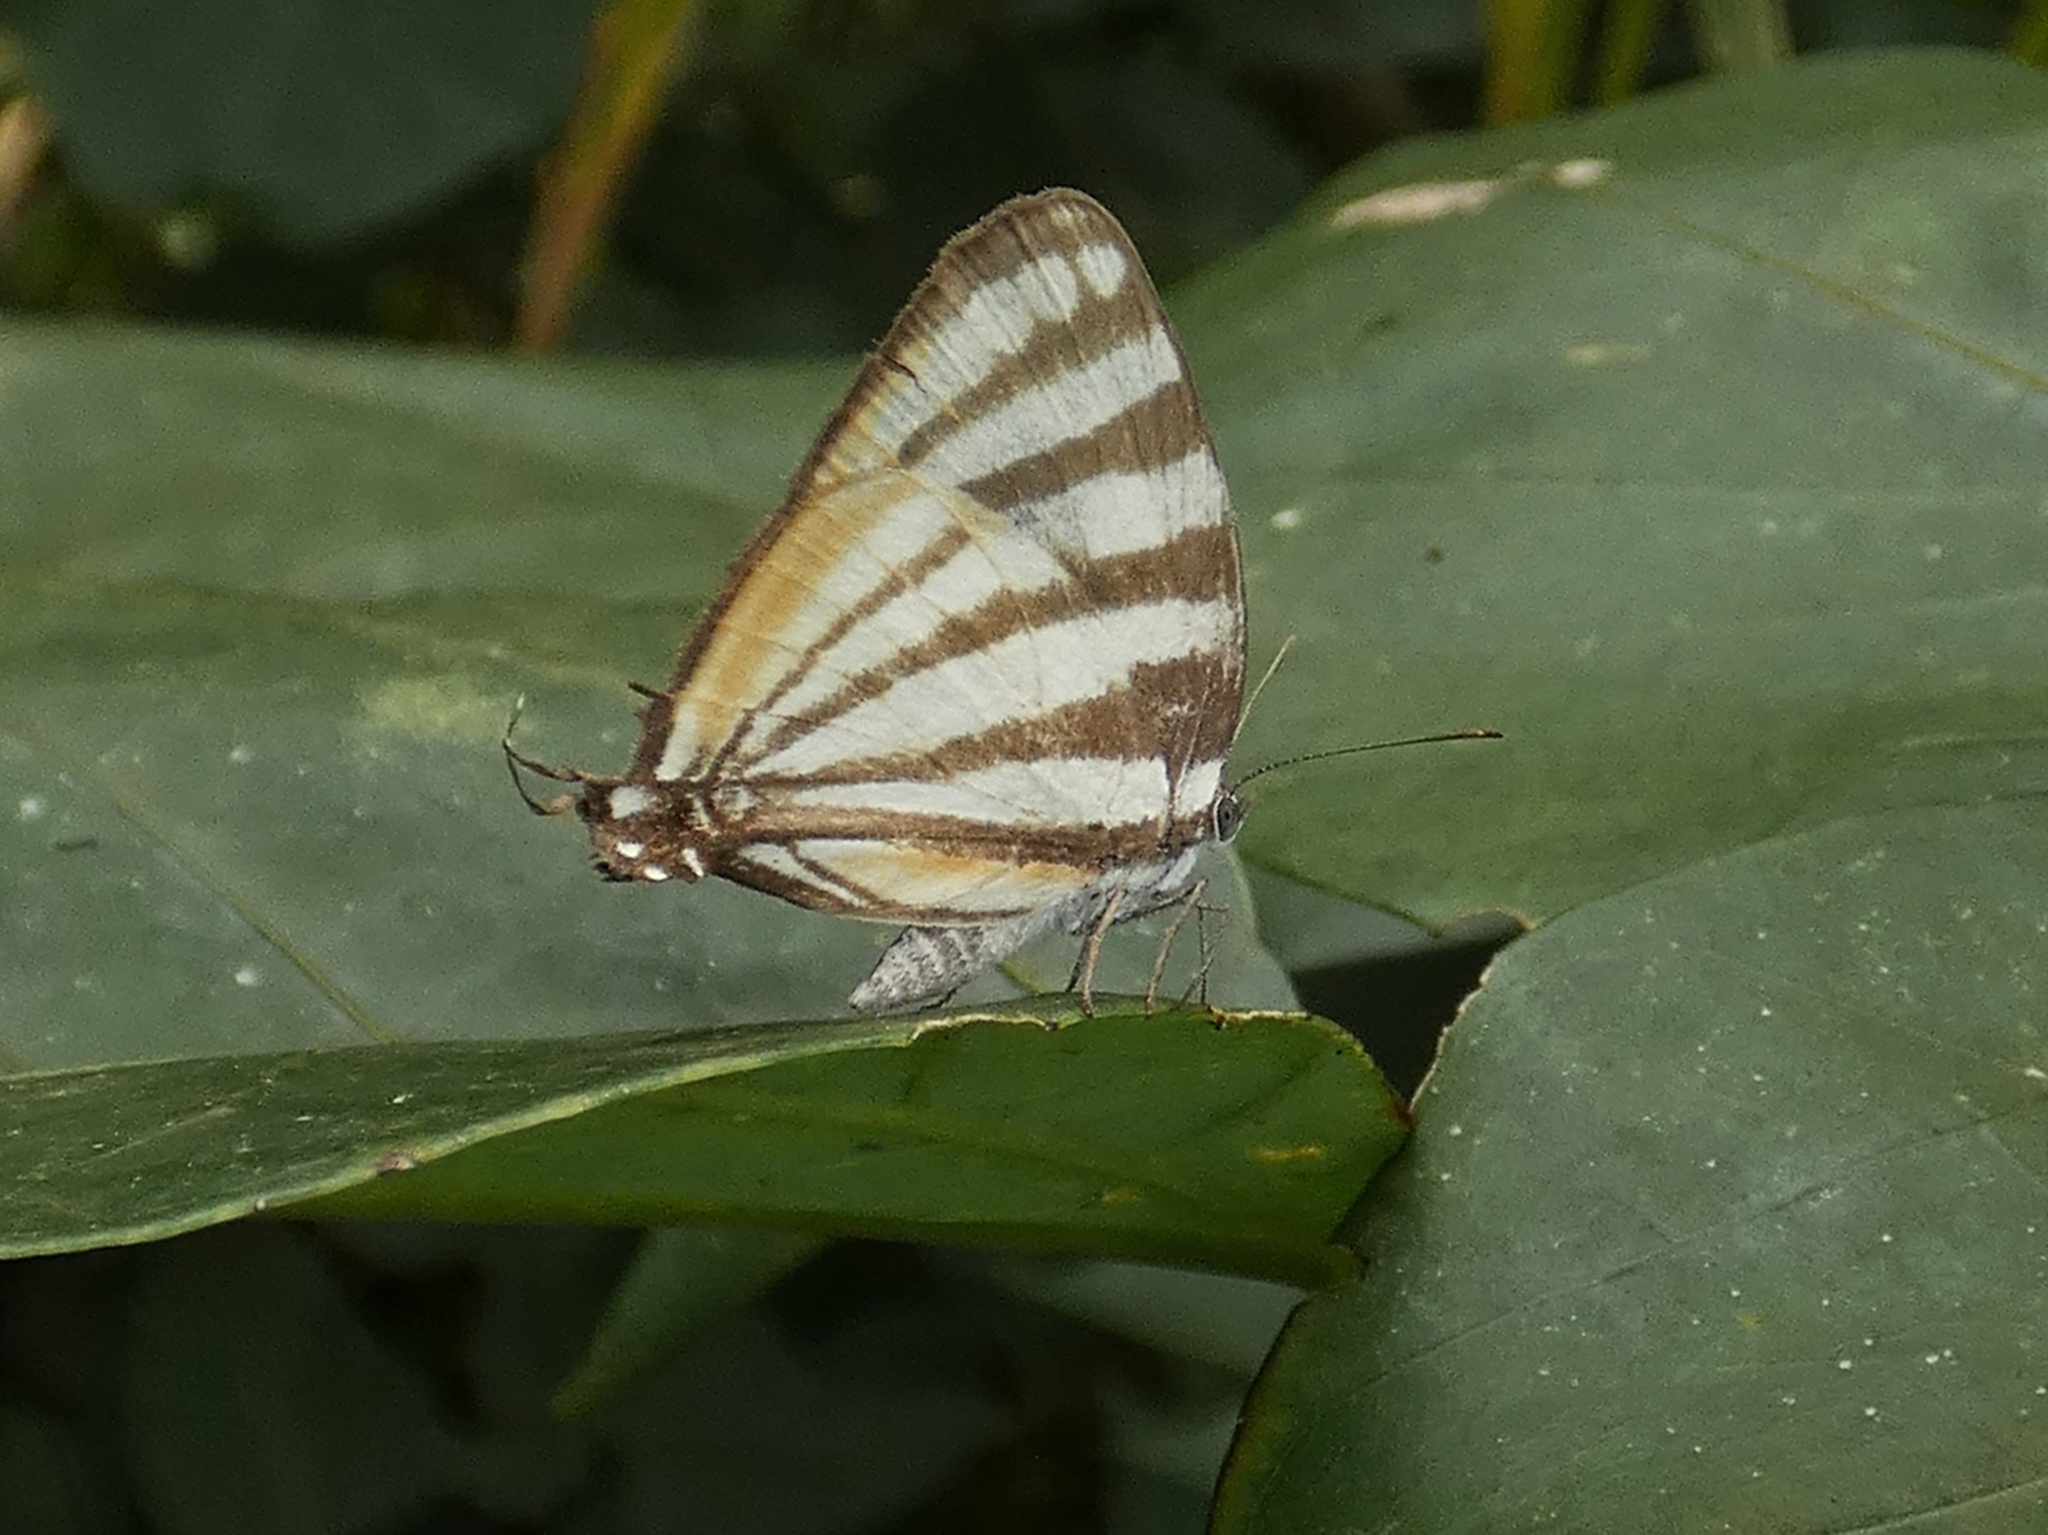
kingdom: Animalia
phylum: Arthropoda
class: Insecta
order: Lepidoptera
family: Lycaenidae
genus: Arawacus
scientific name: Arawacus lincoides
